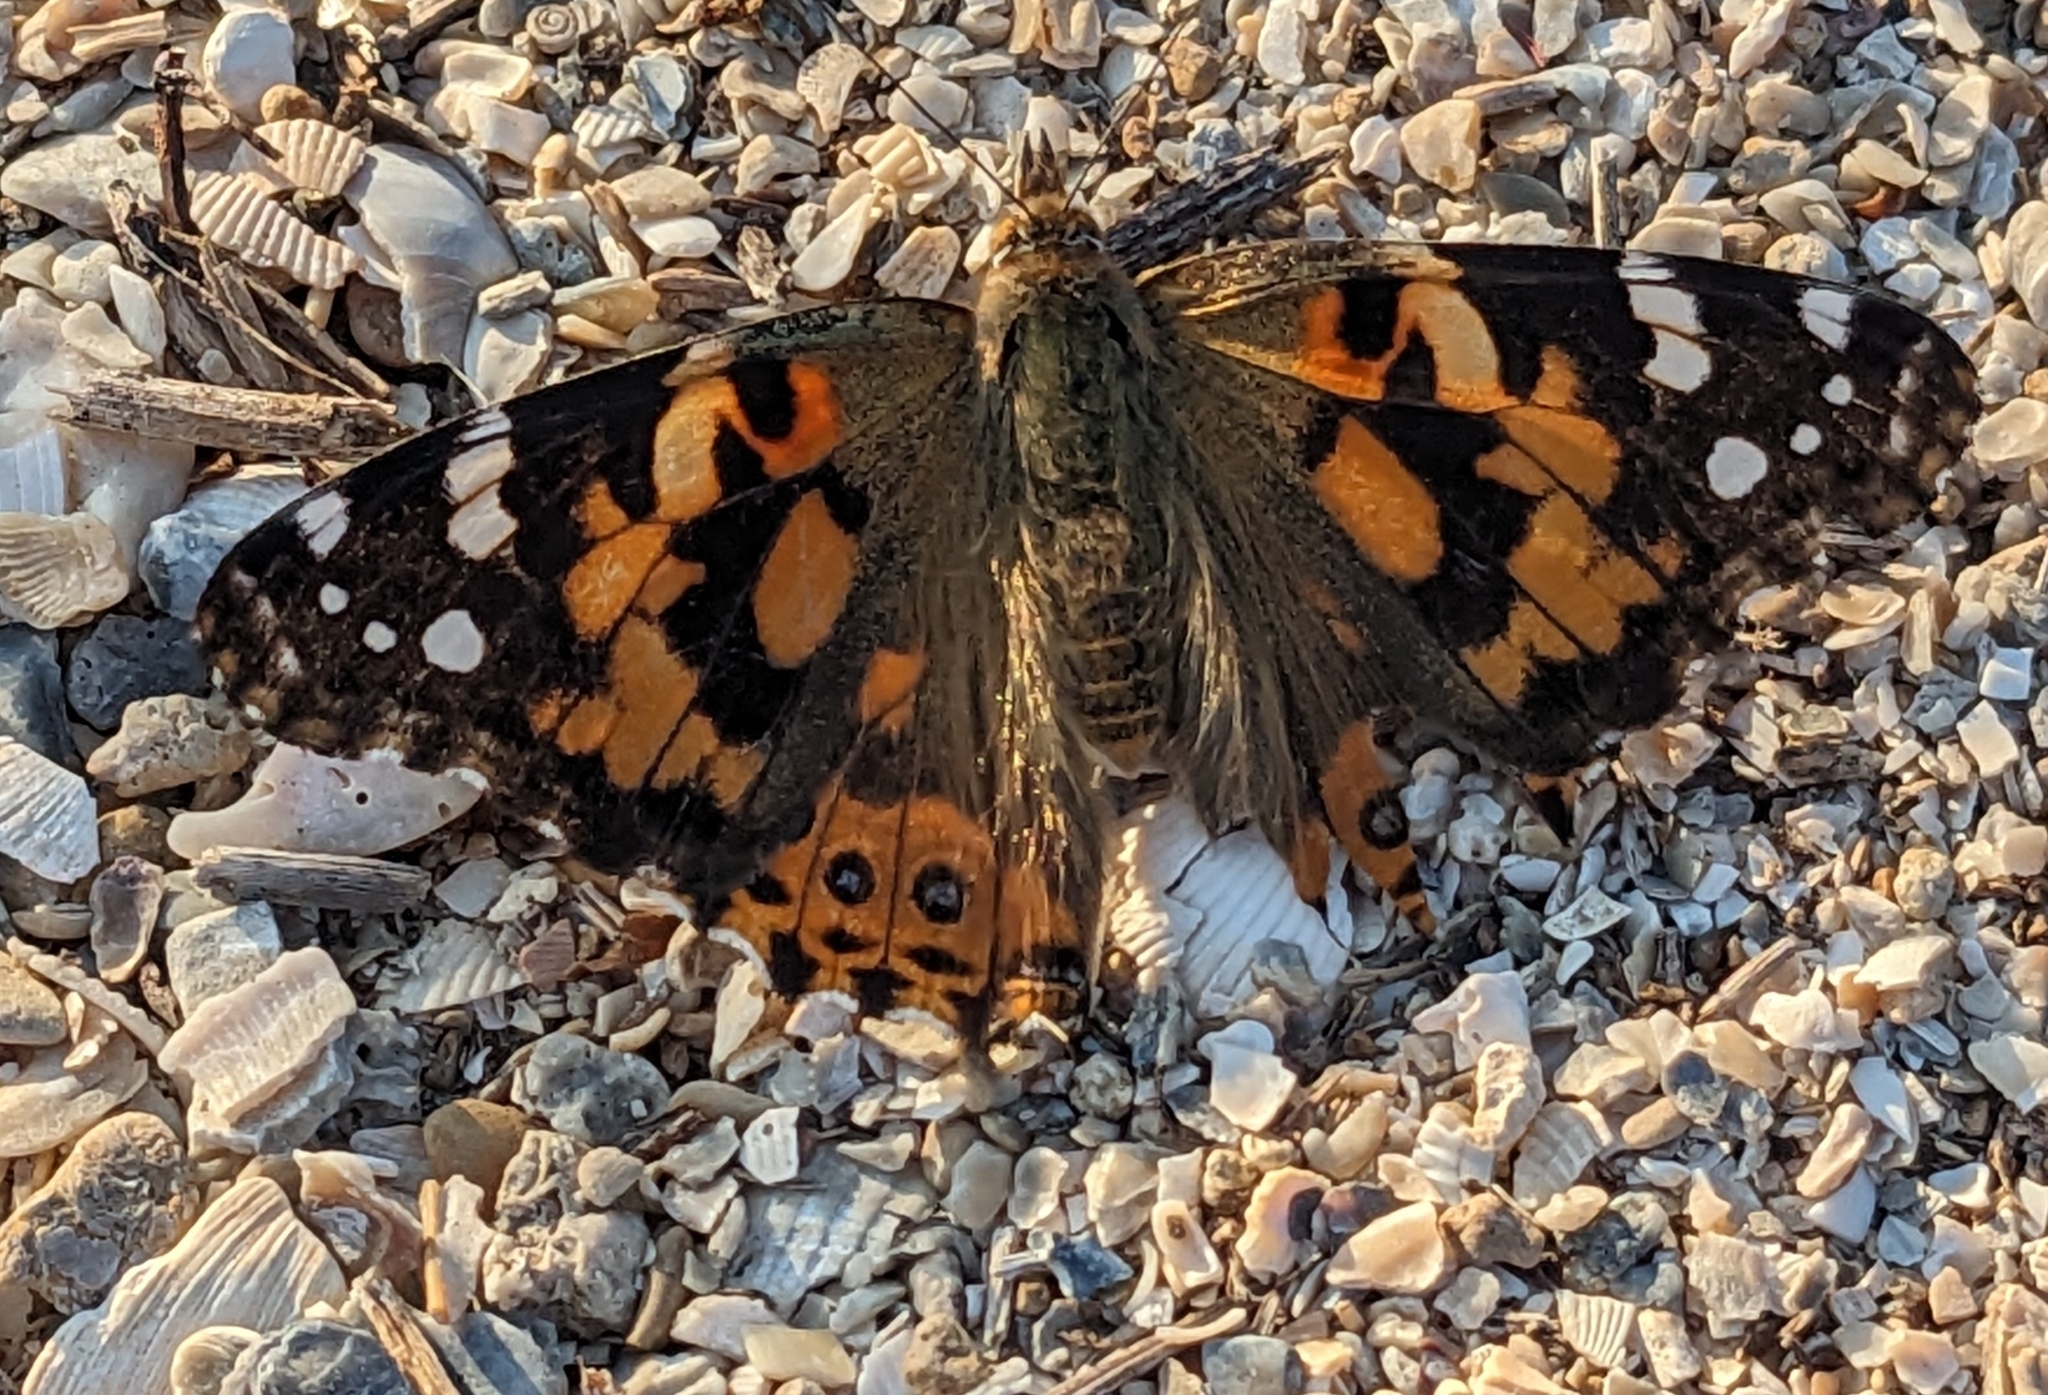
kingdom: Animalia
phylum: Arthropoda
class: Insecta
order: Lepidoptera
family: Nymphalidae
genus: Vanessa
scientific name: Vanessa cardui
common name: Painted lady
